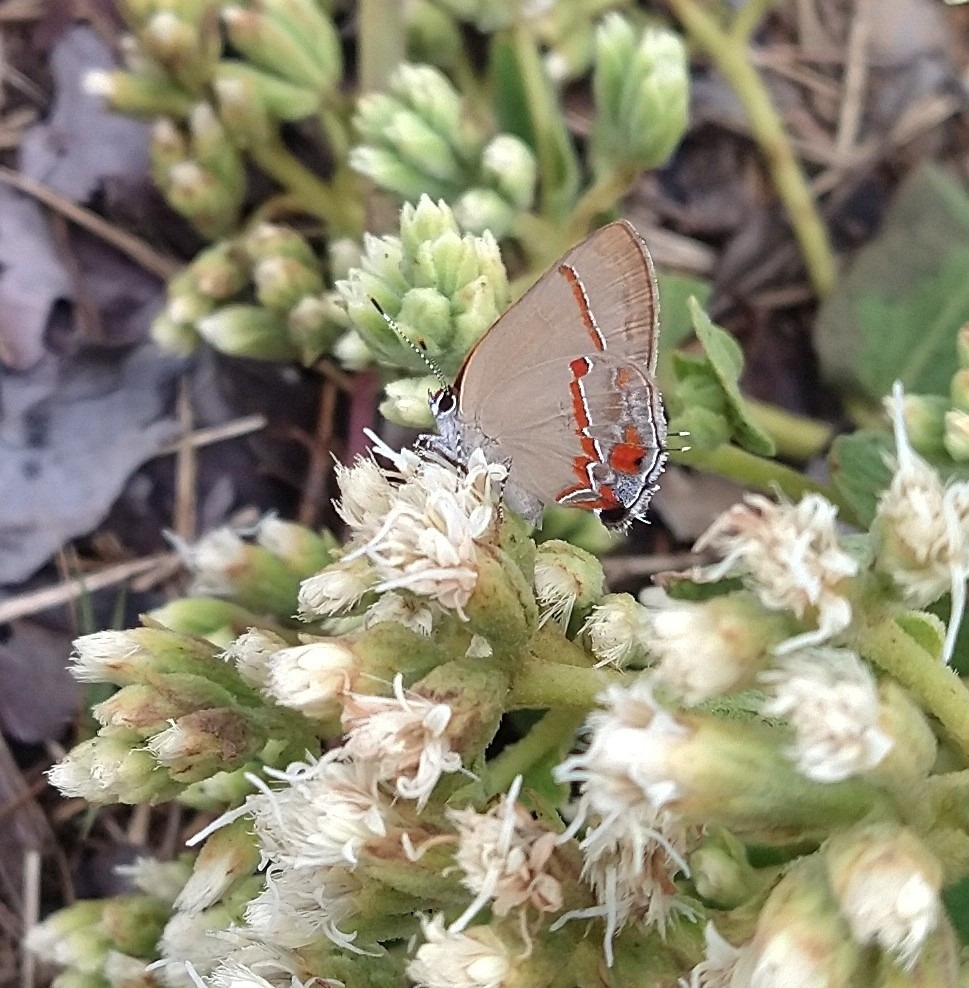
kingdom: Animalia
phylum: Arthropoda
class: Insecta
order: Lepidoptera
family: Lycaenidae
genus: Thecla
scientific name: Thecla badaca
